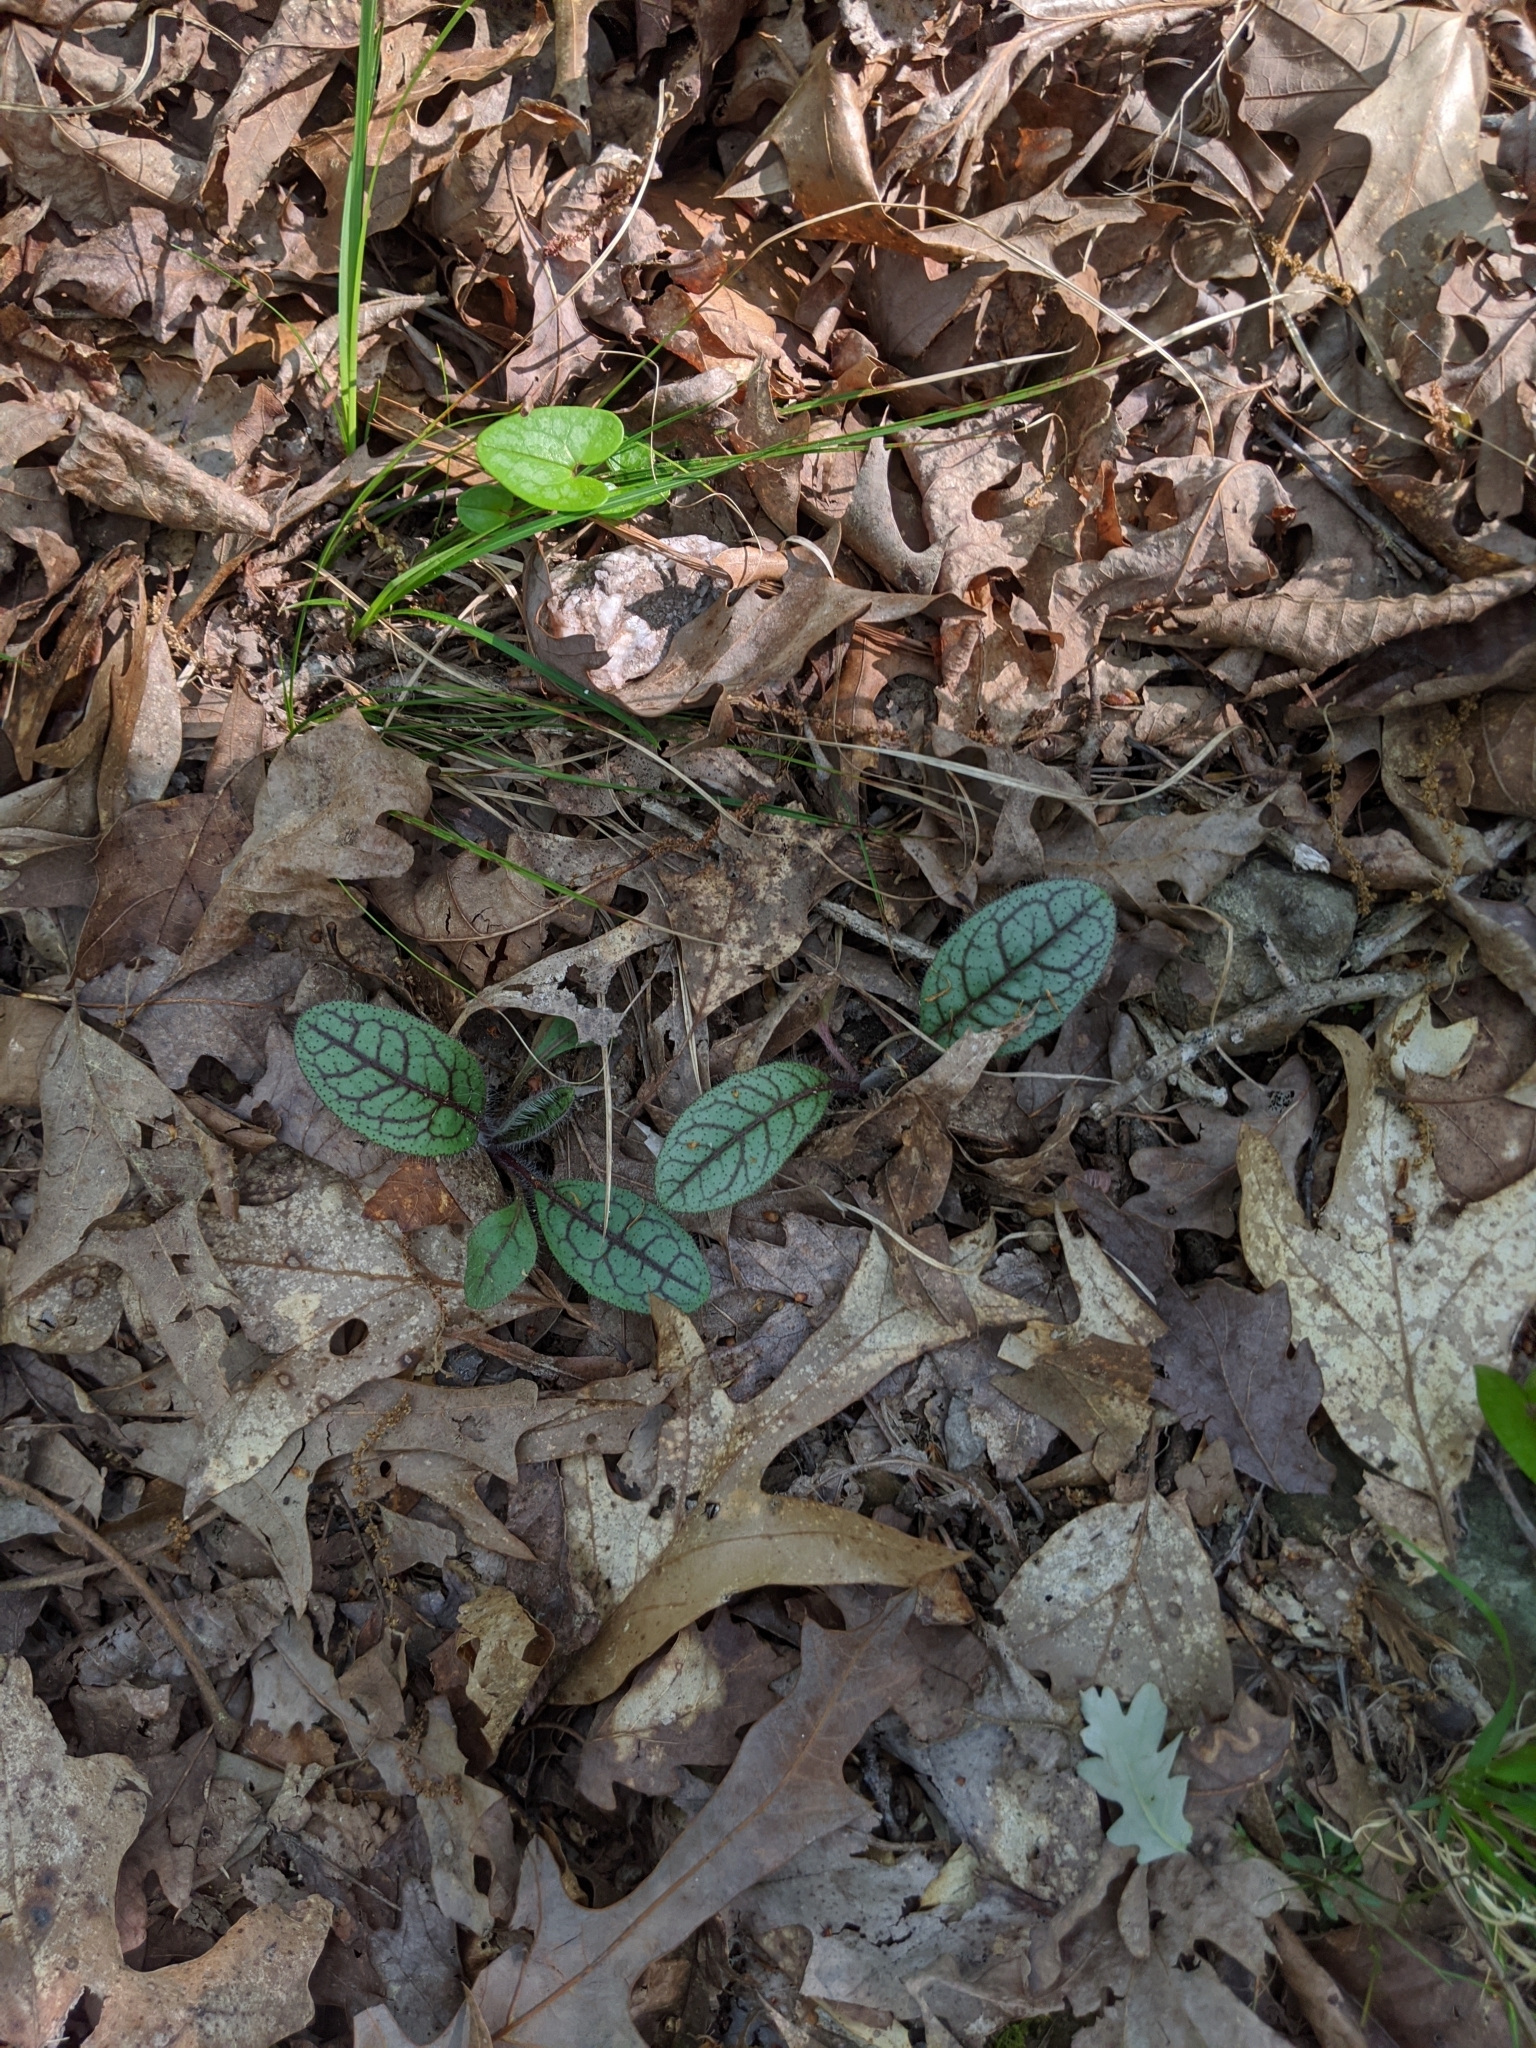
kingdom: Plantae
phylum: Tracheophyta
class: Magnoliopsida
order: Asterales
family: Asteraceae
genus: Hieracium
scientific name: Hieracium venosum
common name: Rattlesnake hawkweed
